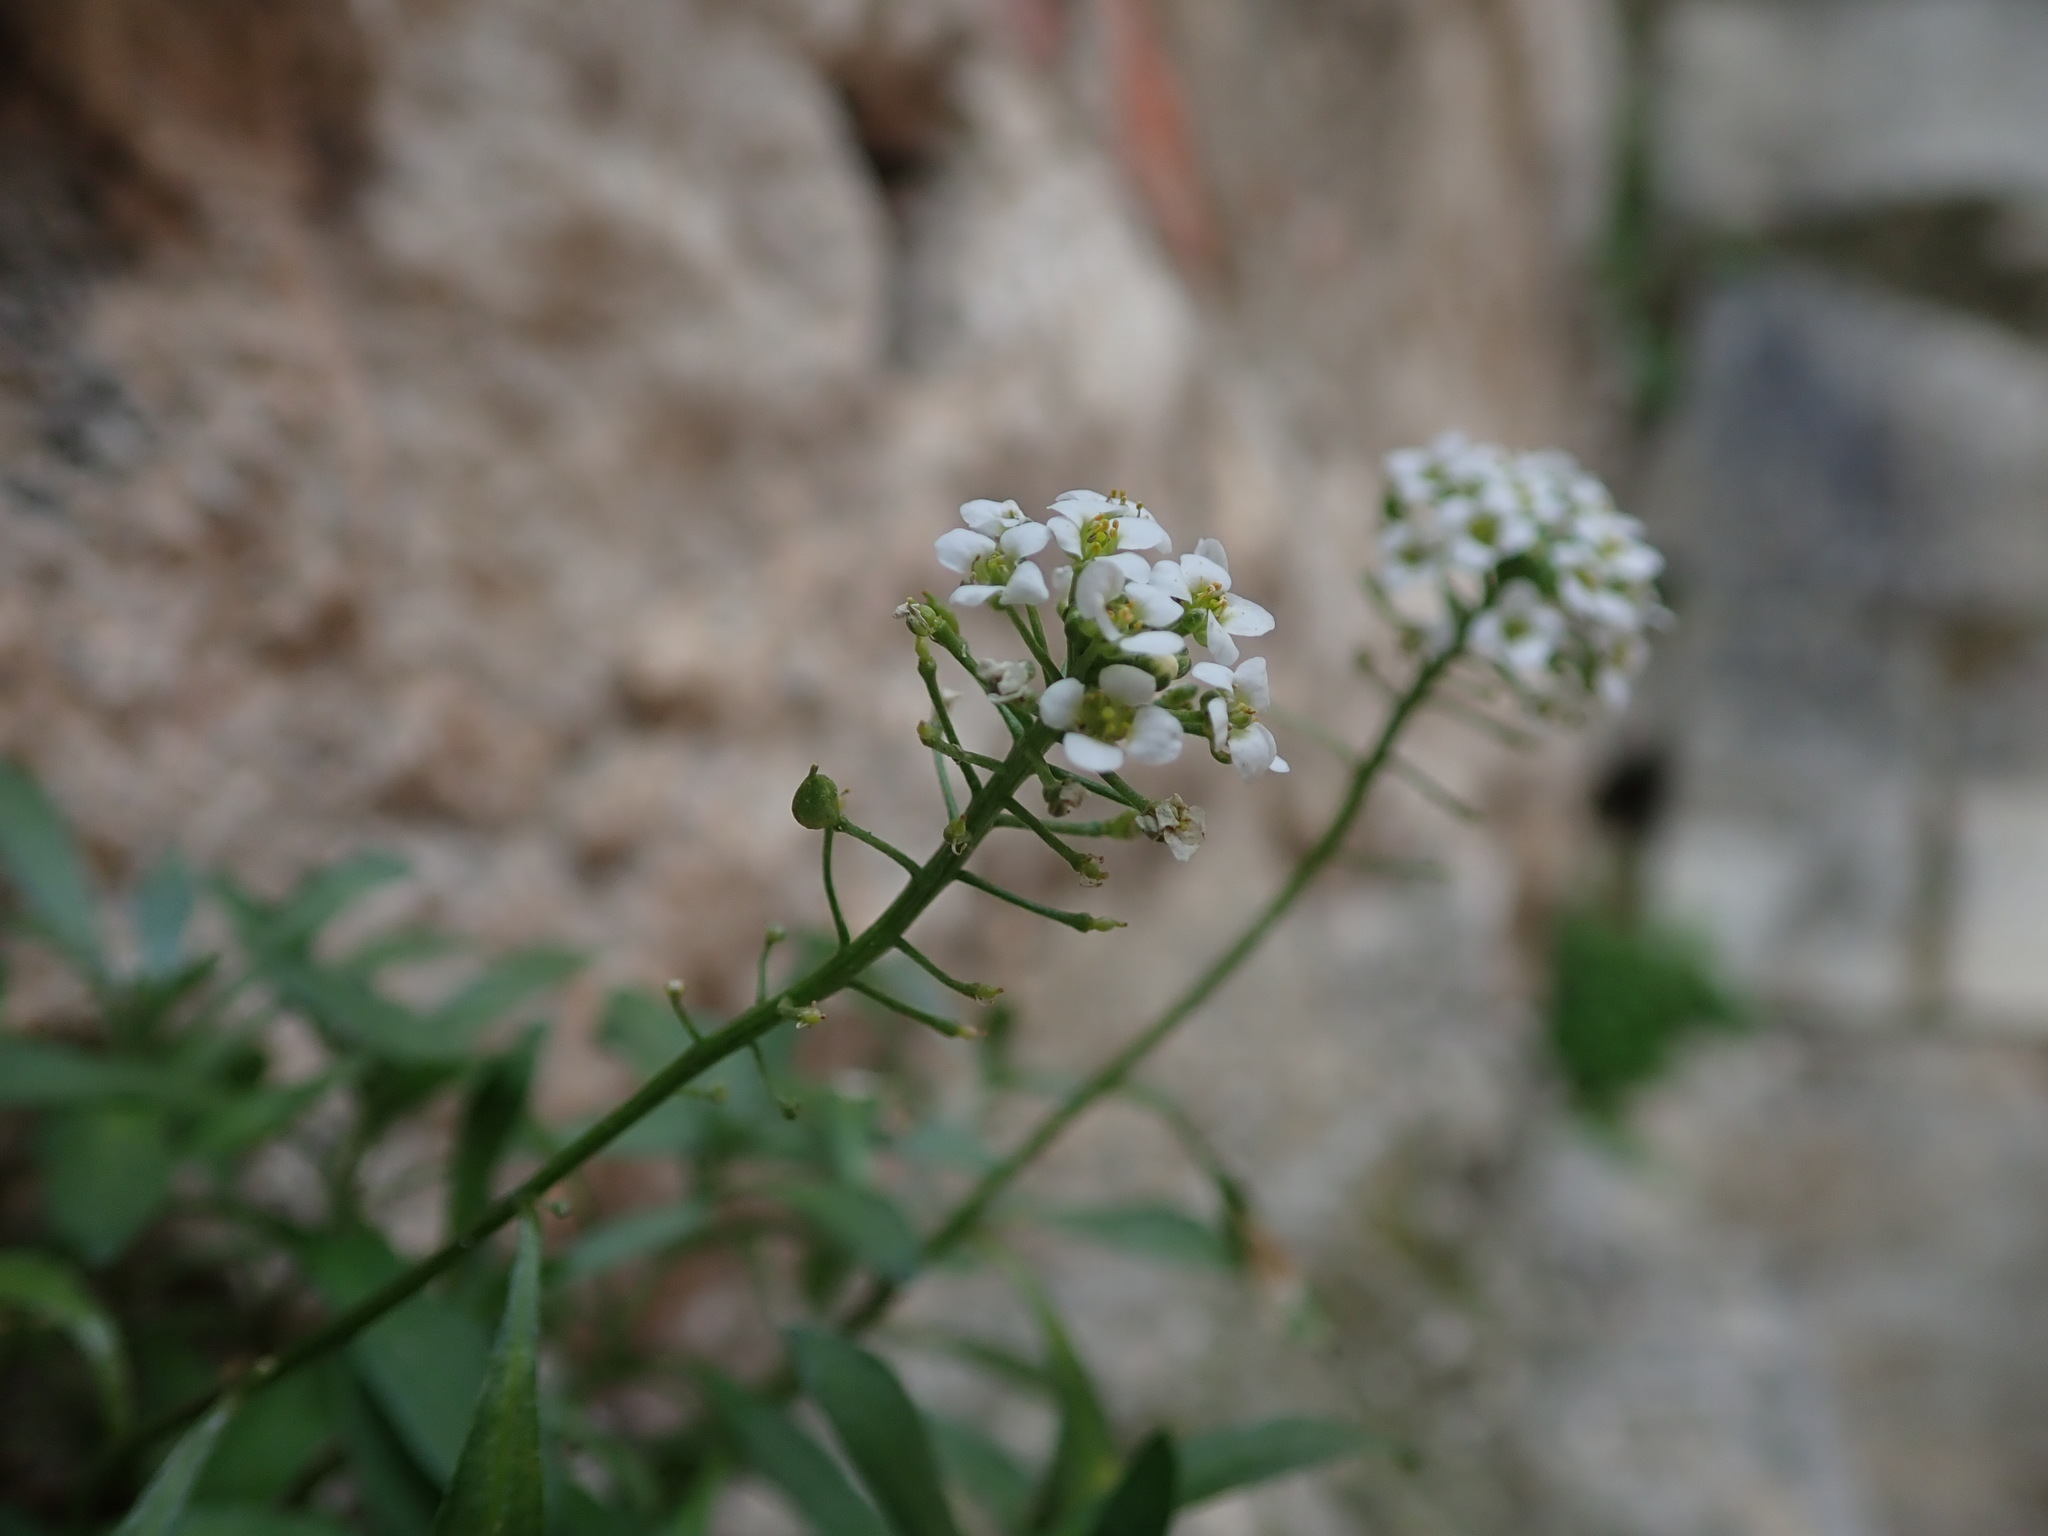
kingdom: Plantae
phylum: Tracheophyta
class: Magnoliopsida
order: Brassicales
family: Brassicaceae
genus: Lobularia
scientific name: Lobularia maritima
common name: Sweet alison
